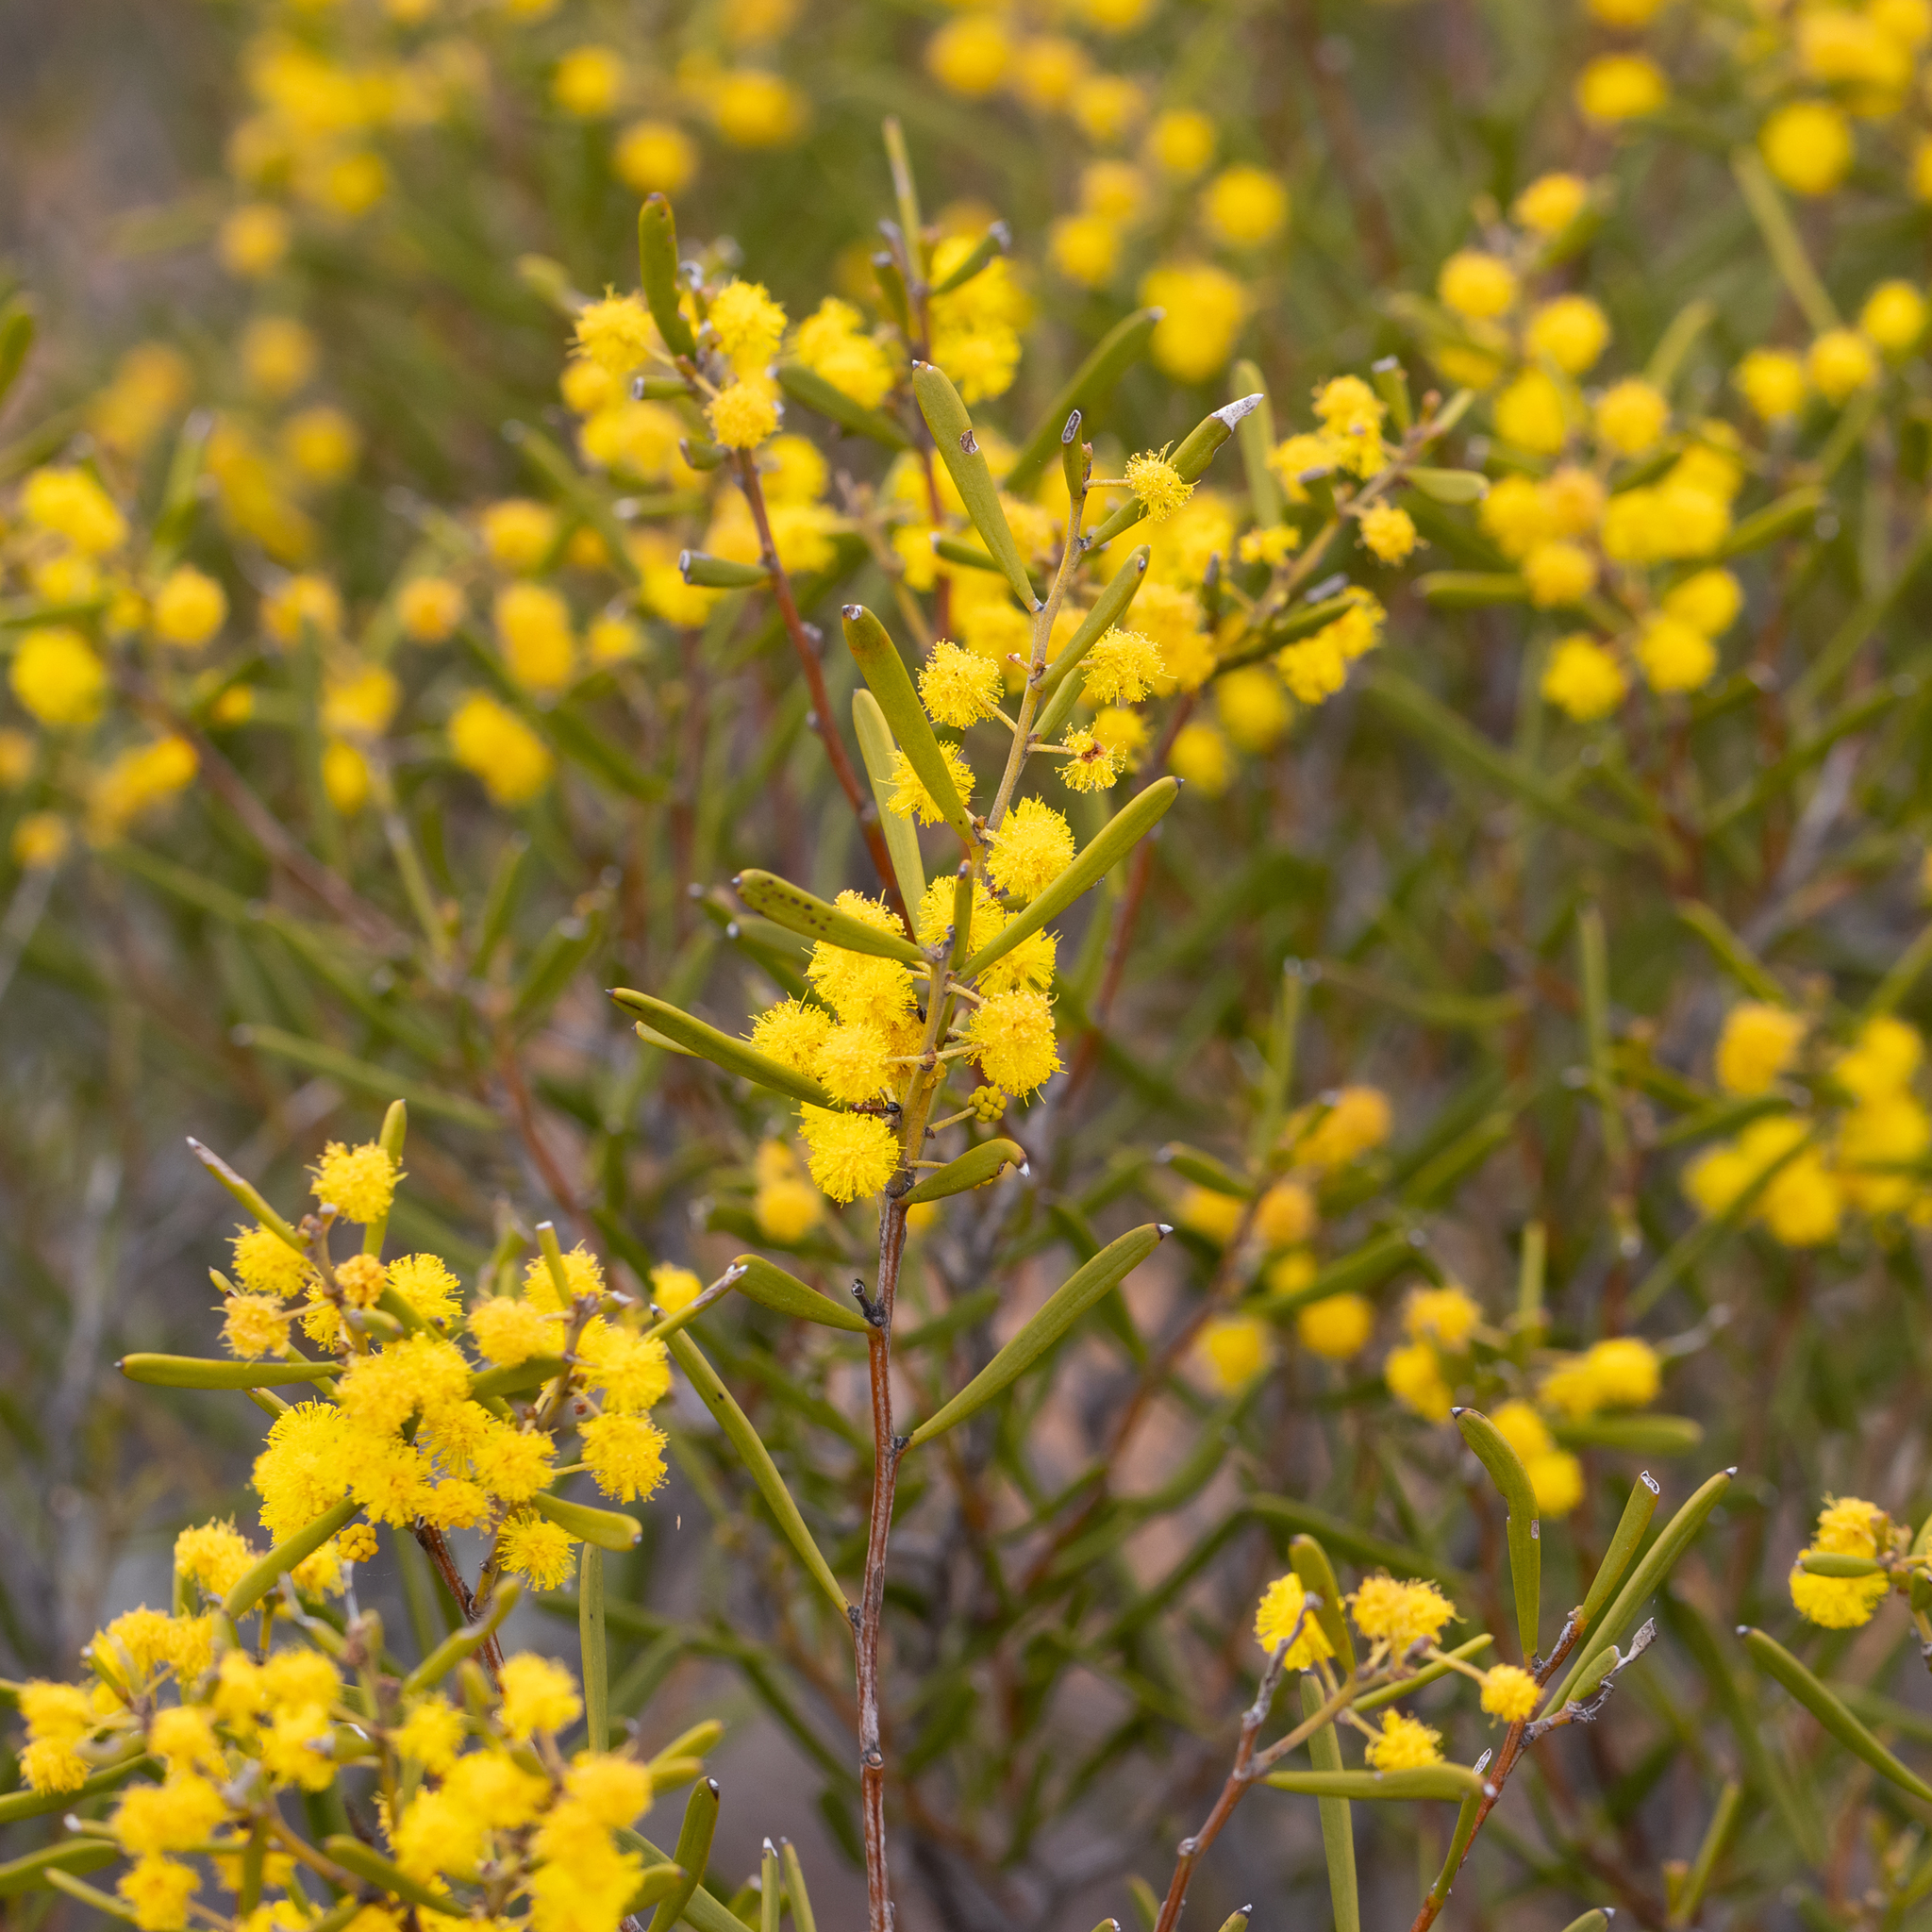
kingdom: Plantae
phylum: Tracheophyta
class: Magnoliopsida
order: Fabales
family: Fabaceae
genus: Acacia
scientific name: Acacia sclerophylla
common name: Hard-leaf wattle
